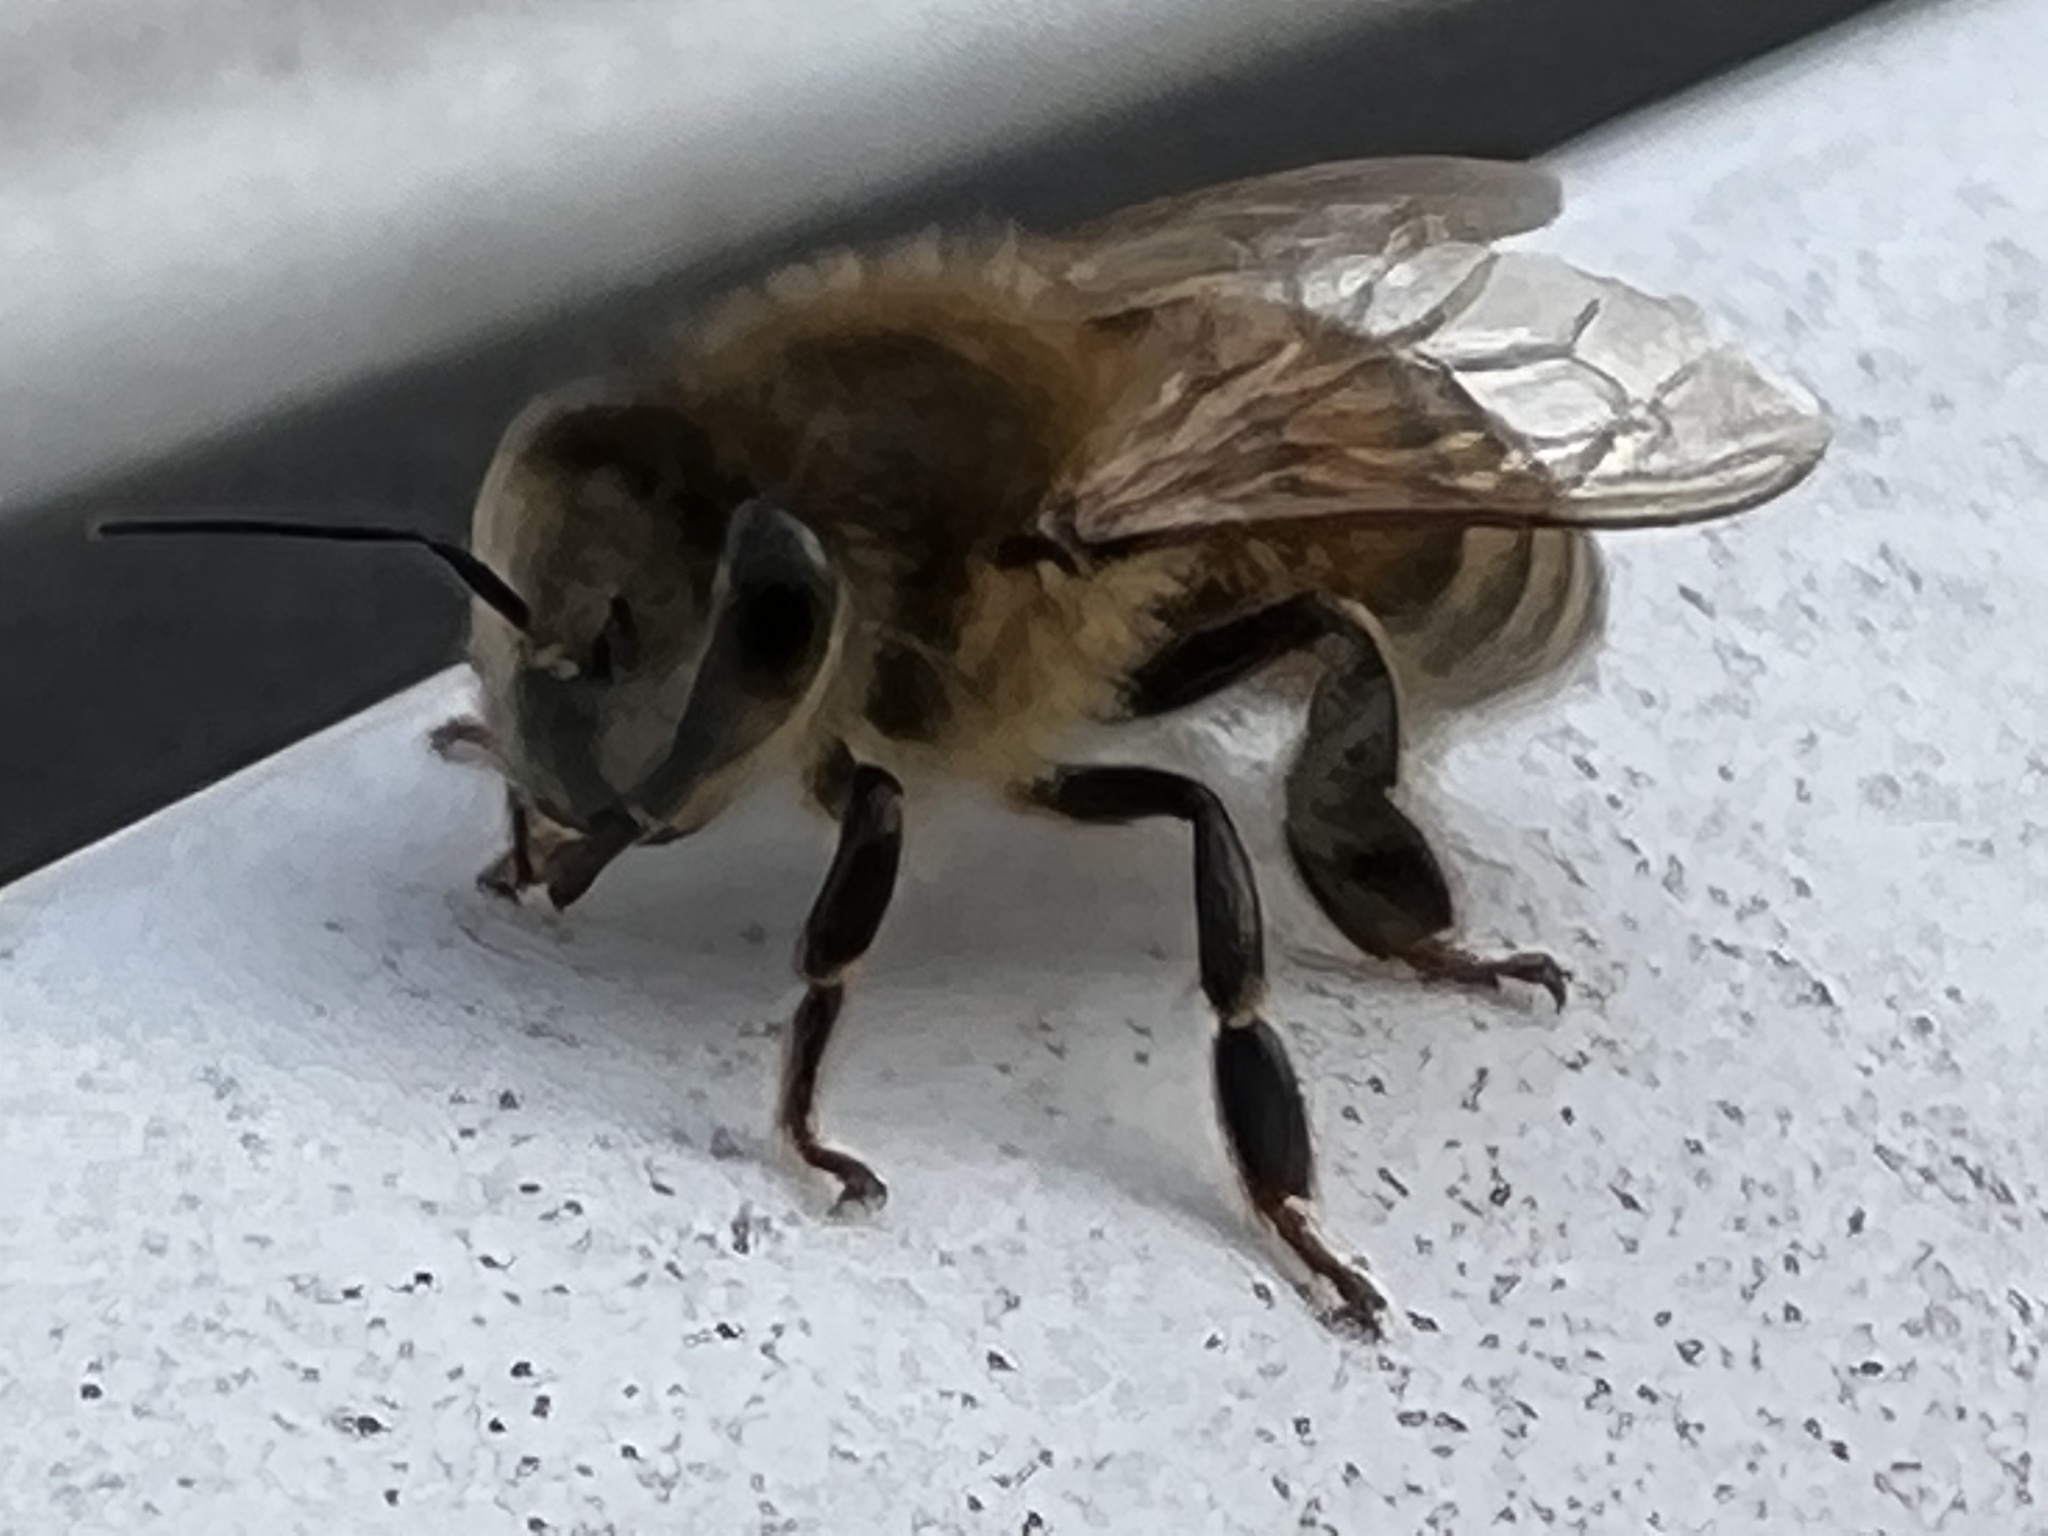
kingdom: Animalia
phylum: Arthropoda
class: Insecta
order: Hymenoptera
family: Apidae
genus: Apis
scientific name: Apis mellifera
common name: Honey bee
